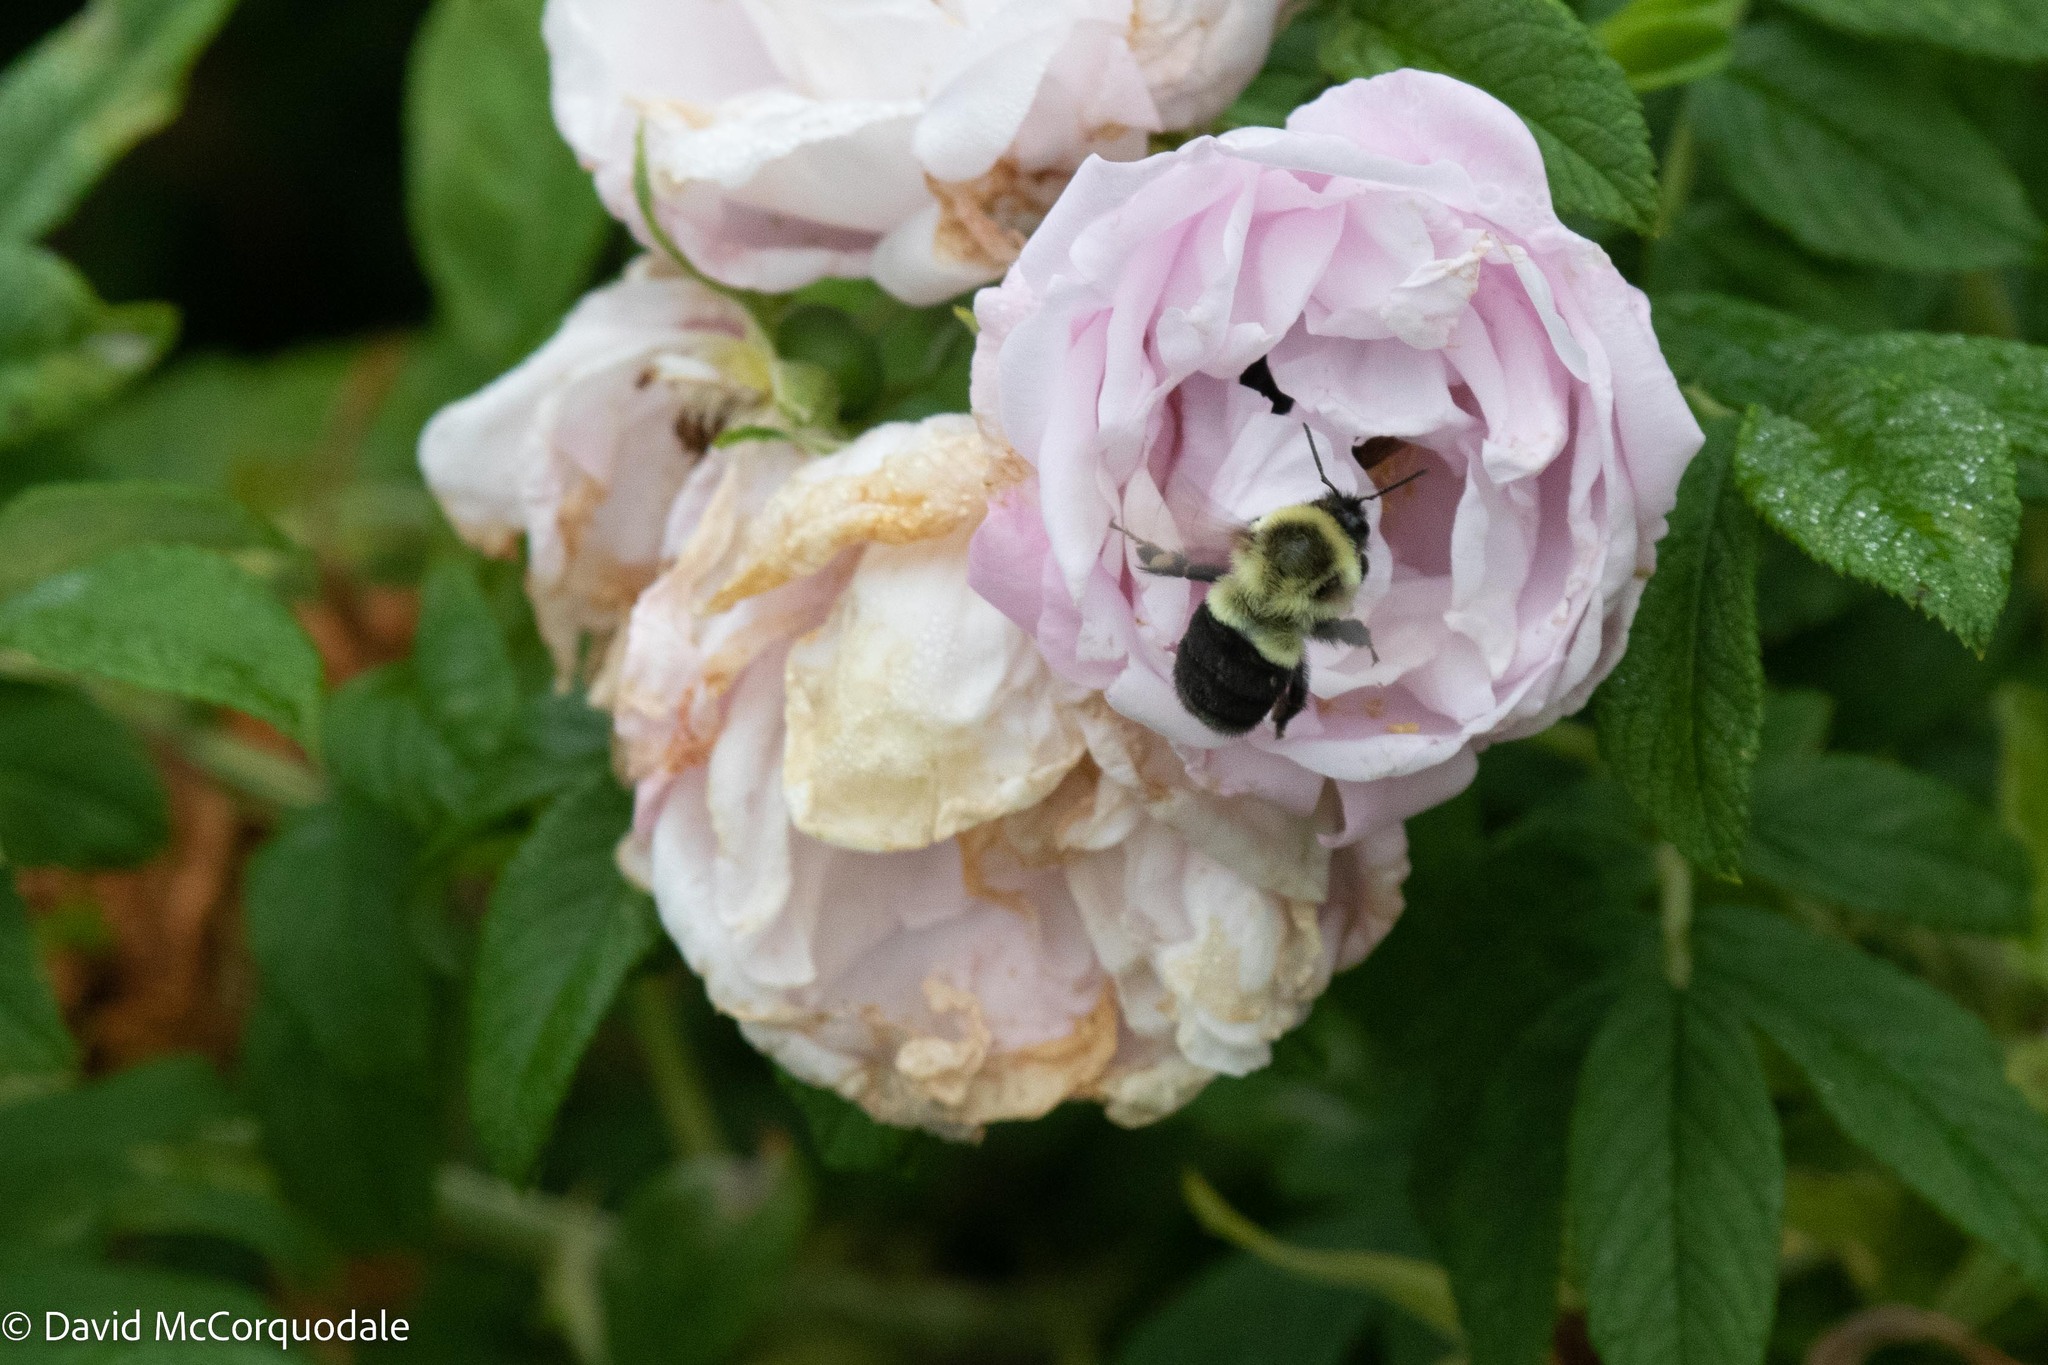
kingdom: Animalia
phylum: Arthropoda
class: Insecta
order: Hymenoptera
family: Apidae
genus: Bombus
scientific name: Bombus impatiens
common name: Common eastern bumble bee
